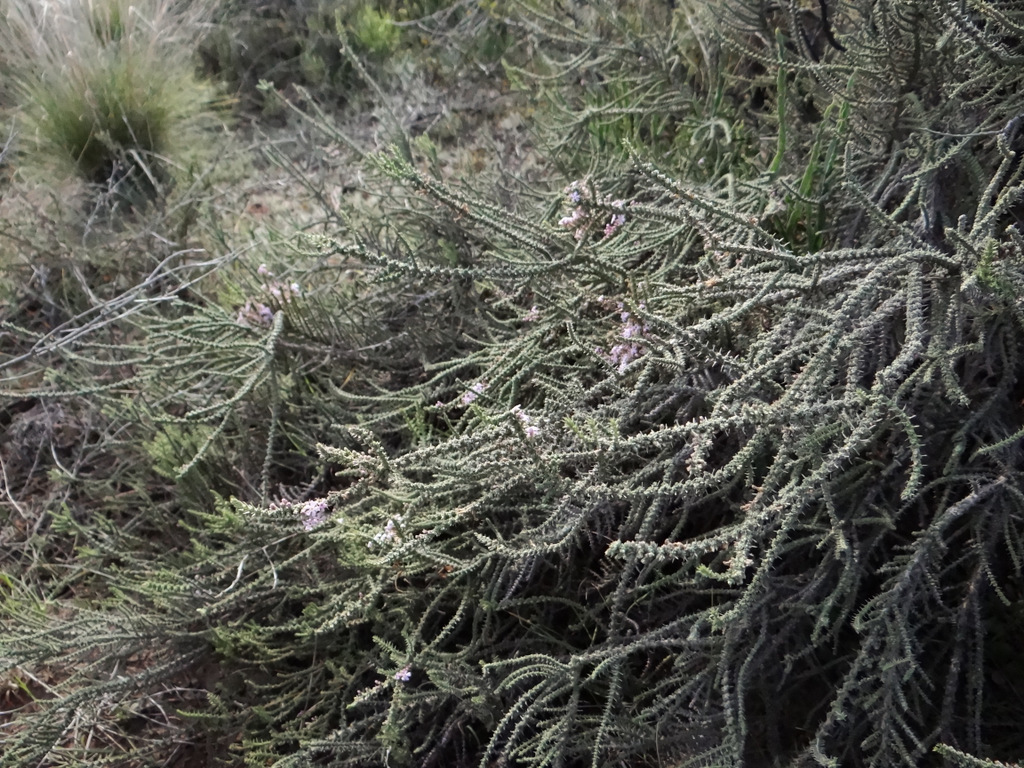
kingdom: Plantae
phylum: Tracheophyta
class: Magnoliopsida
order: Lamiales
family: Verbenaceae
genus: Junellia
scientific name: Junellia seriphioides
